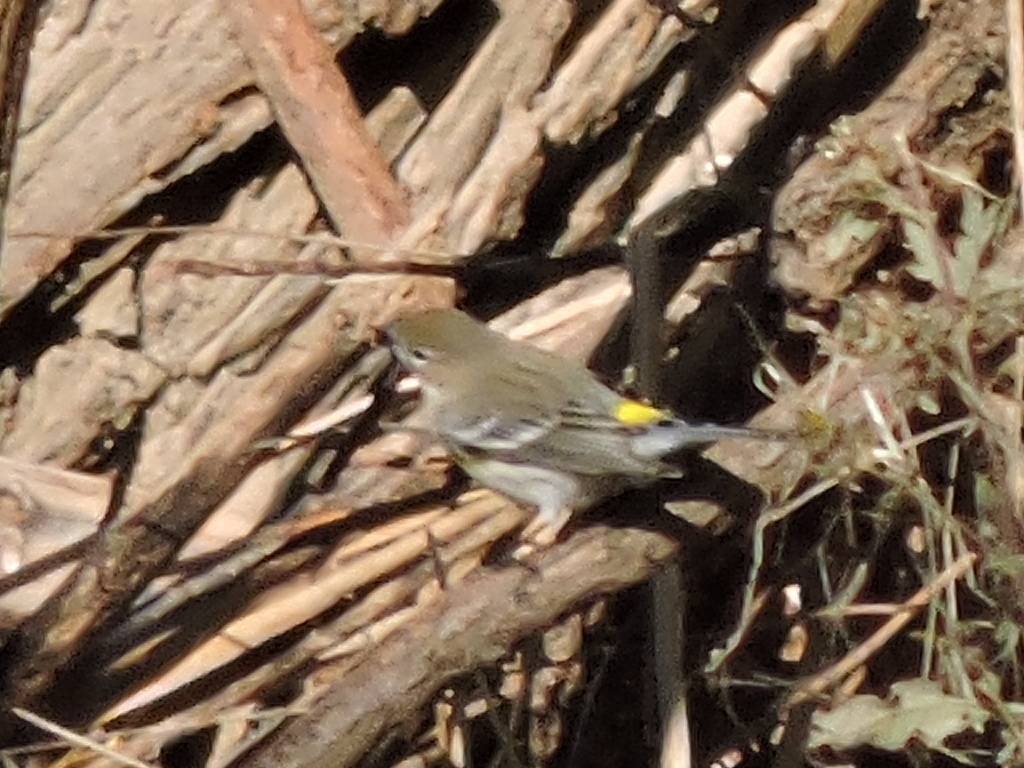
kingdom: Animalia
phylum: Chordata
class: Aves
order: Passeriformes
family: Parulidae
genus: Setophaga
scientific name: Setophaga coronata
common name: Myrtle warbler
